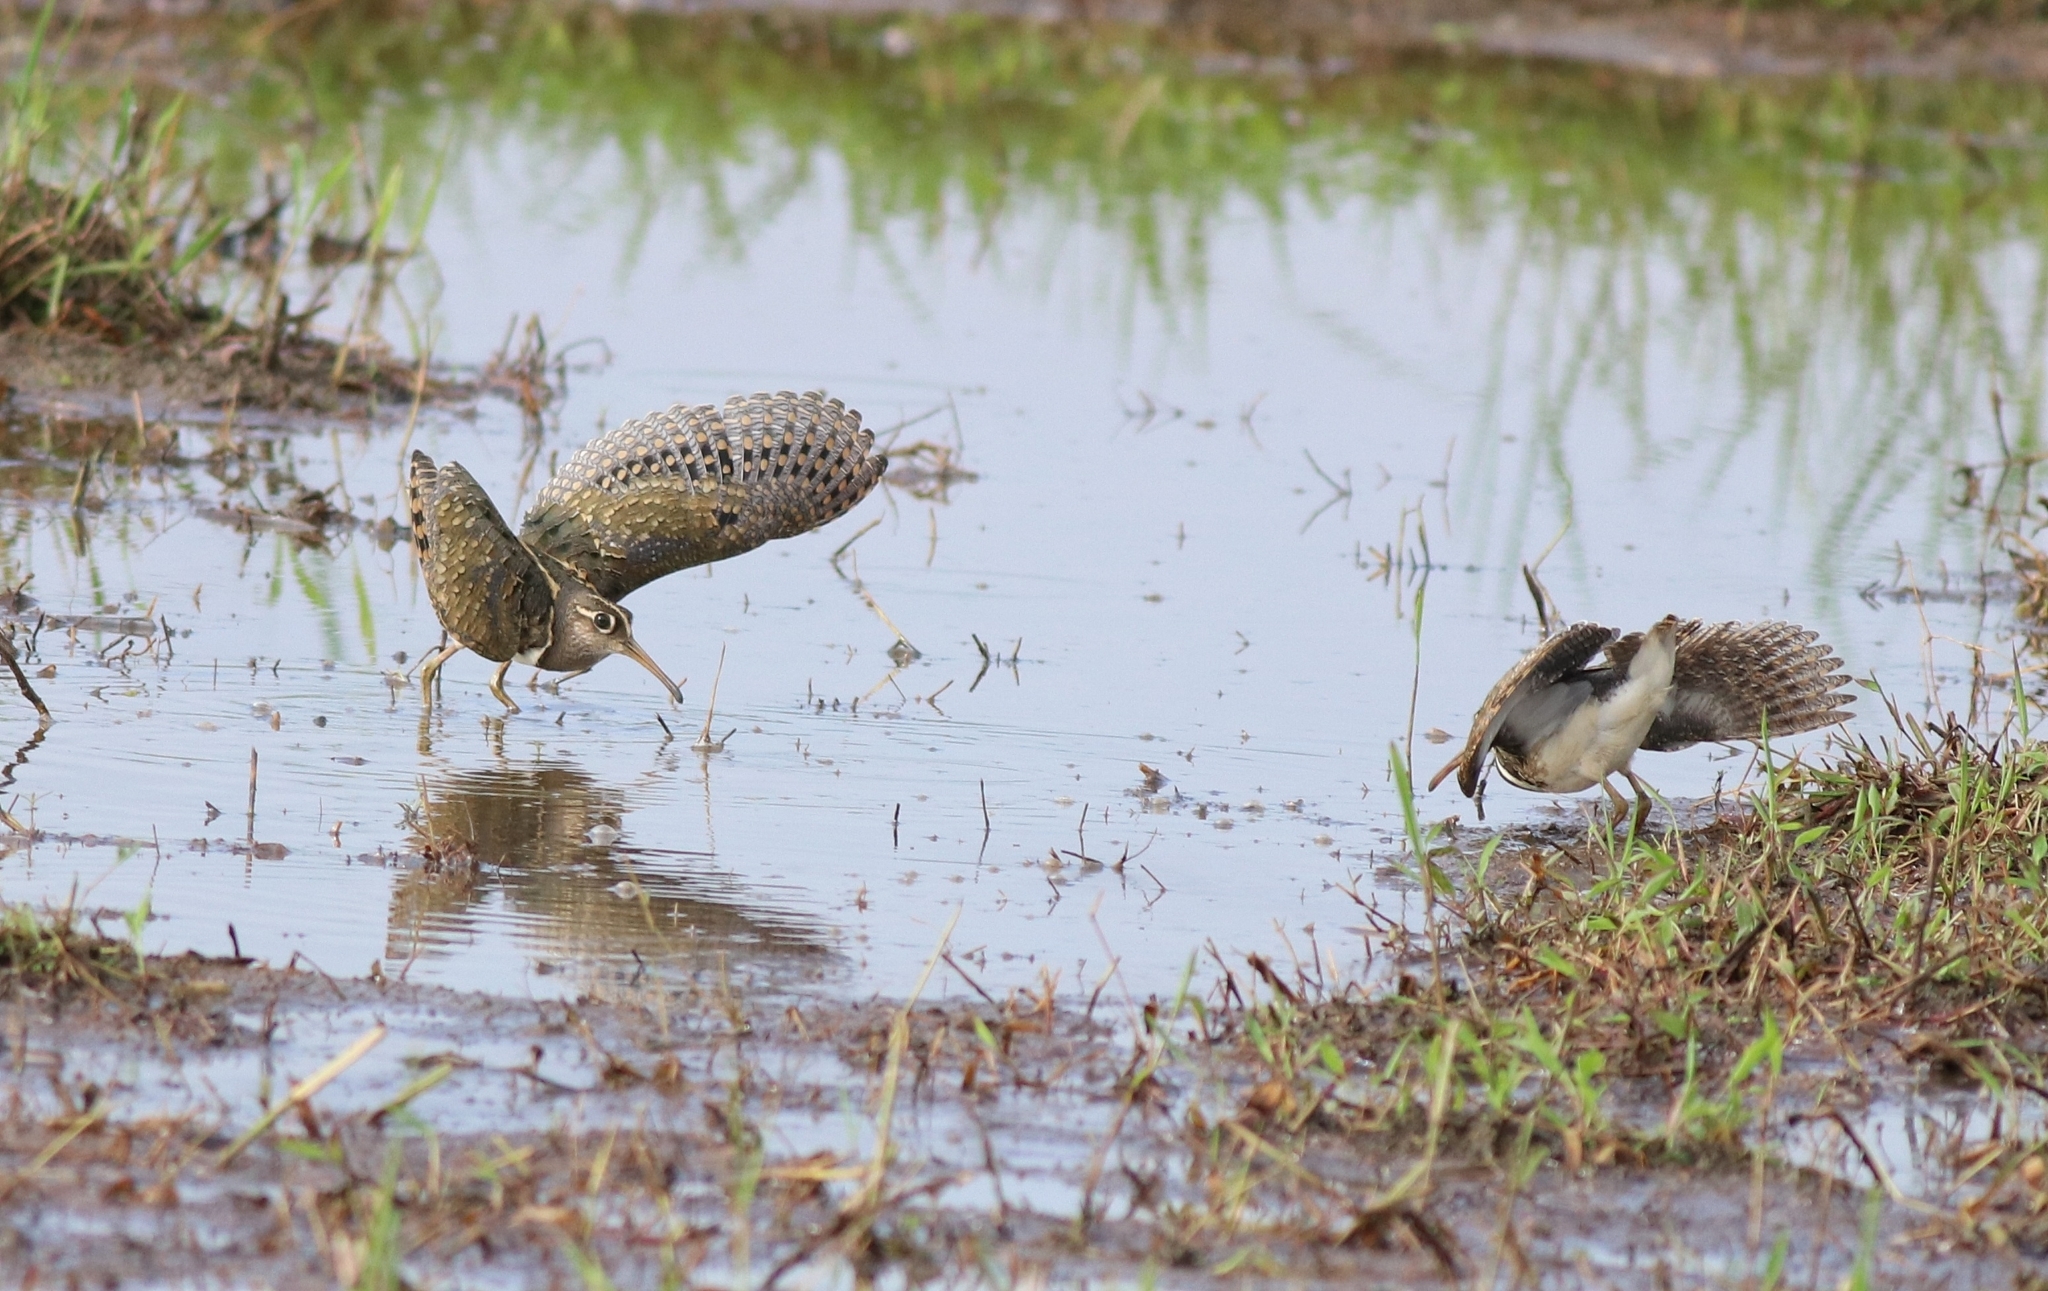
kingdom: Animalia
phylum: Chordata
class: Aves
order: Charadriiformes
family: Rostratulidae
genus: Rostratula
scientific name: Rostratula benghalensis
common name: Greater painted-snipe
